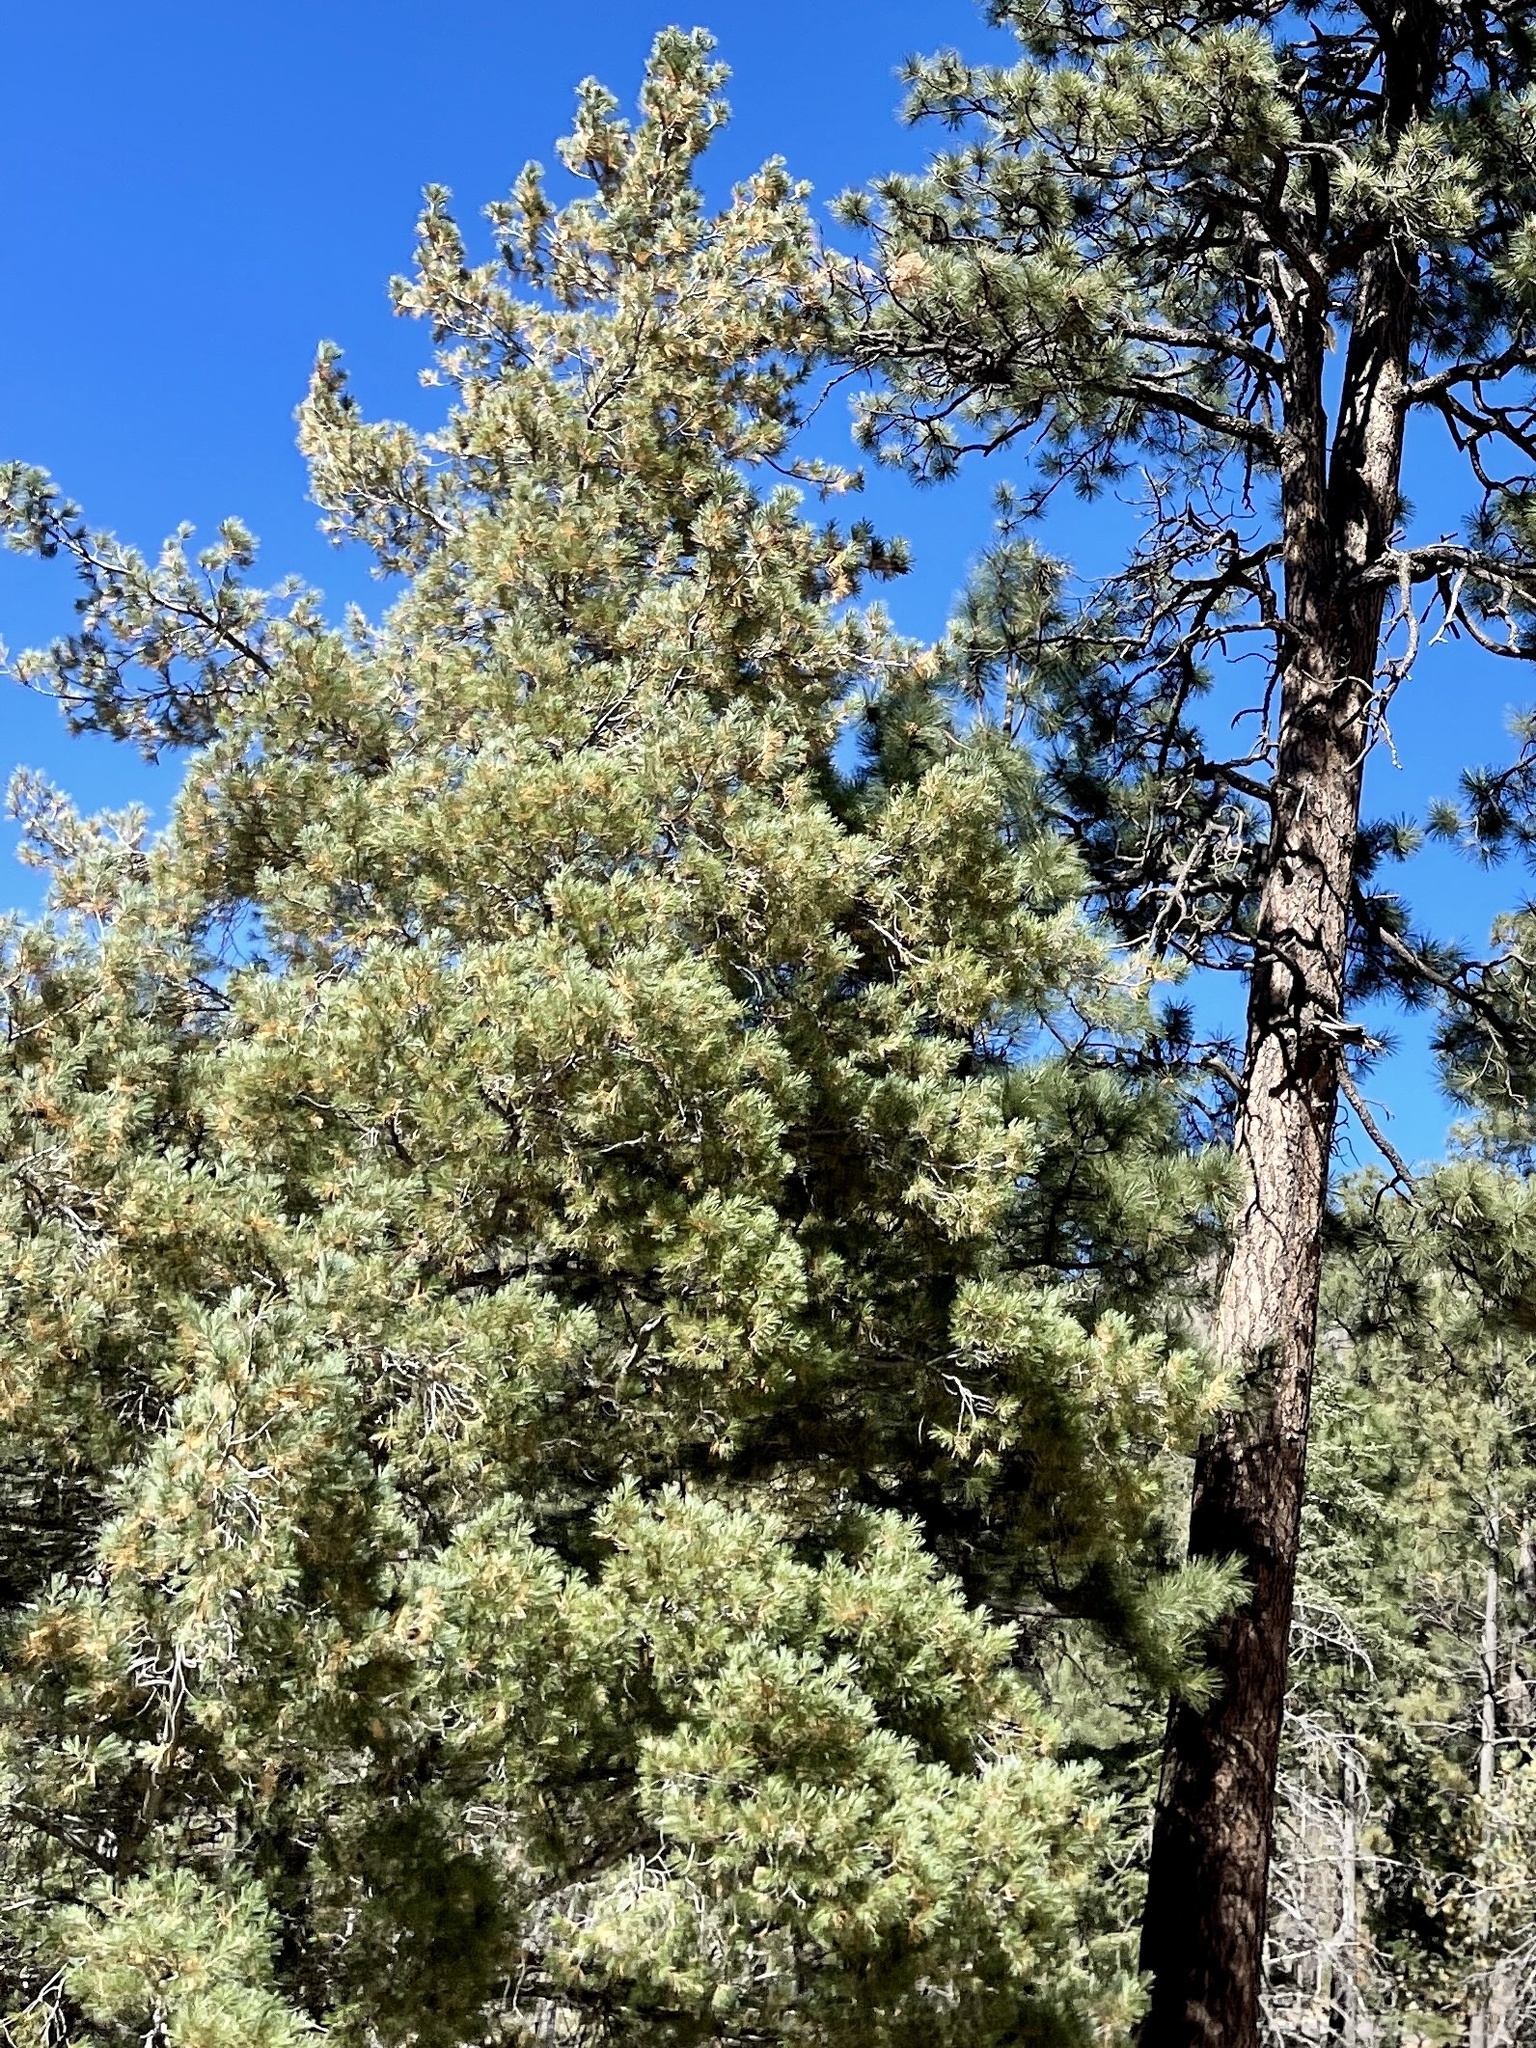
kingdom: Plantae
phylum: Tracheophyta
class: Pinopsida
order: Pinales
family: Pinaceae
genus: Pinus
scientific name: Pinus strobiformis
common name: Southwestern white pine
